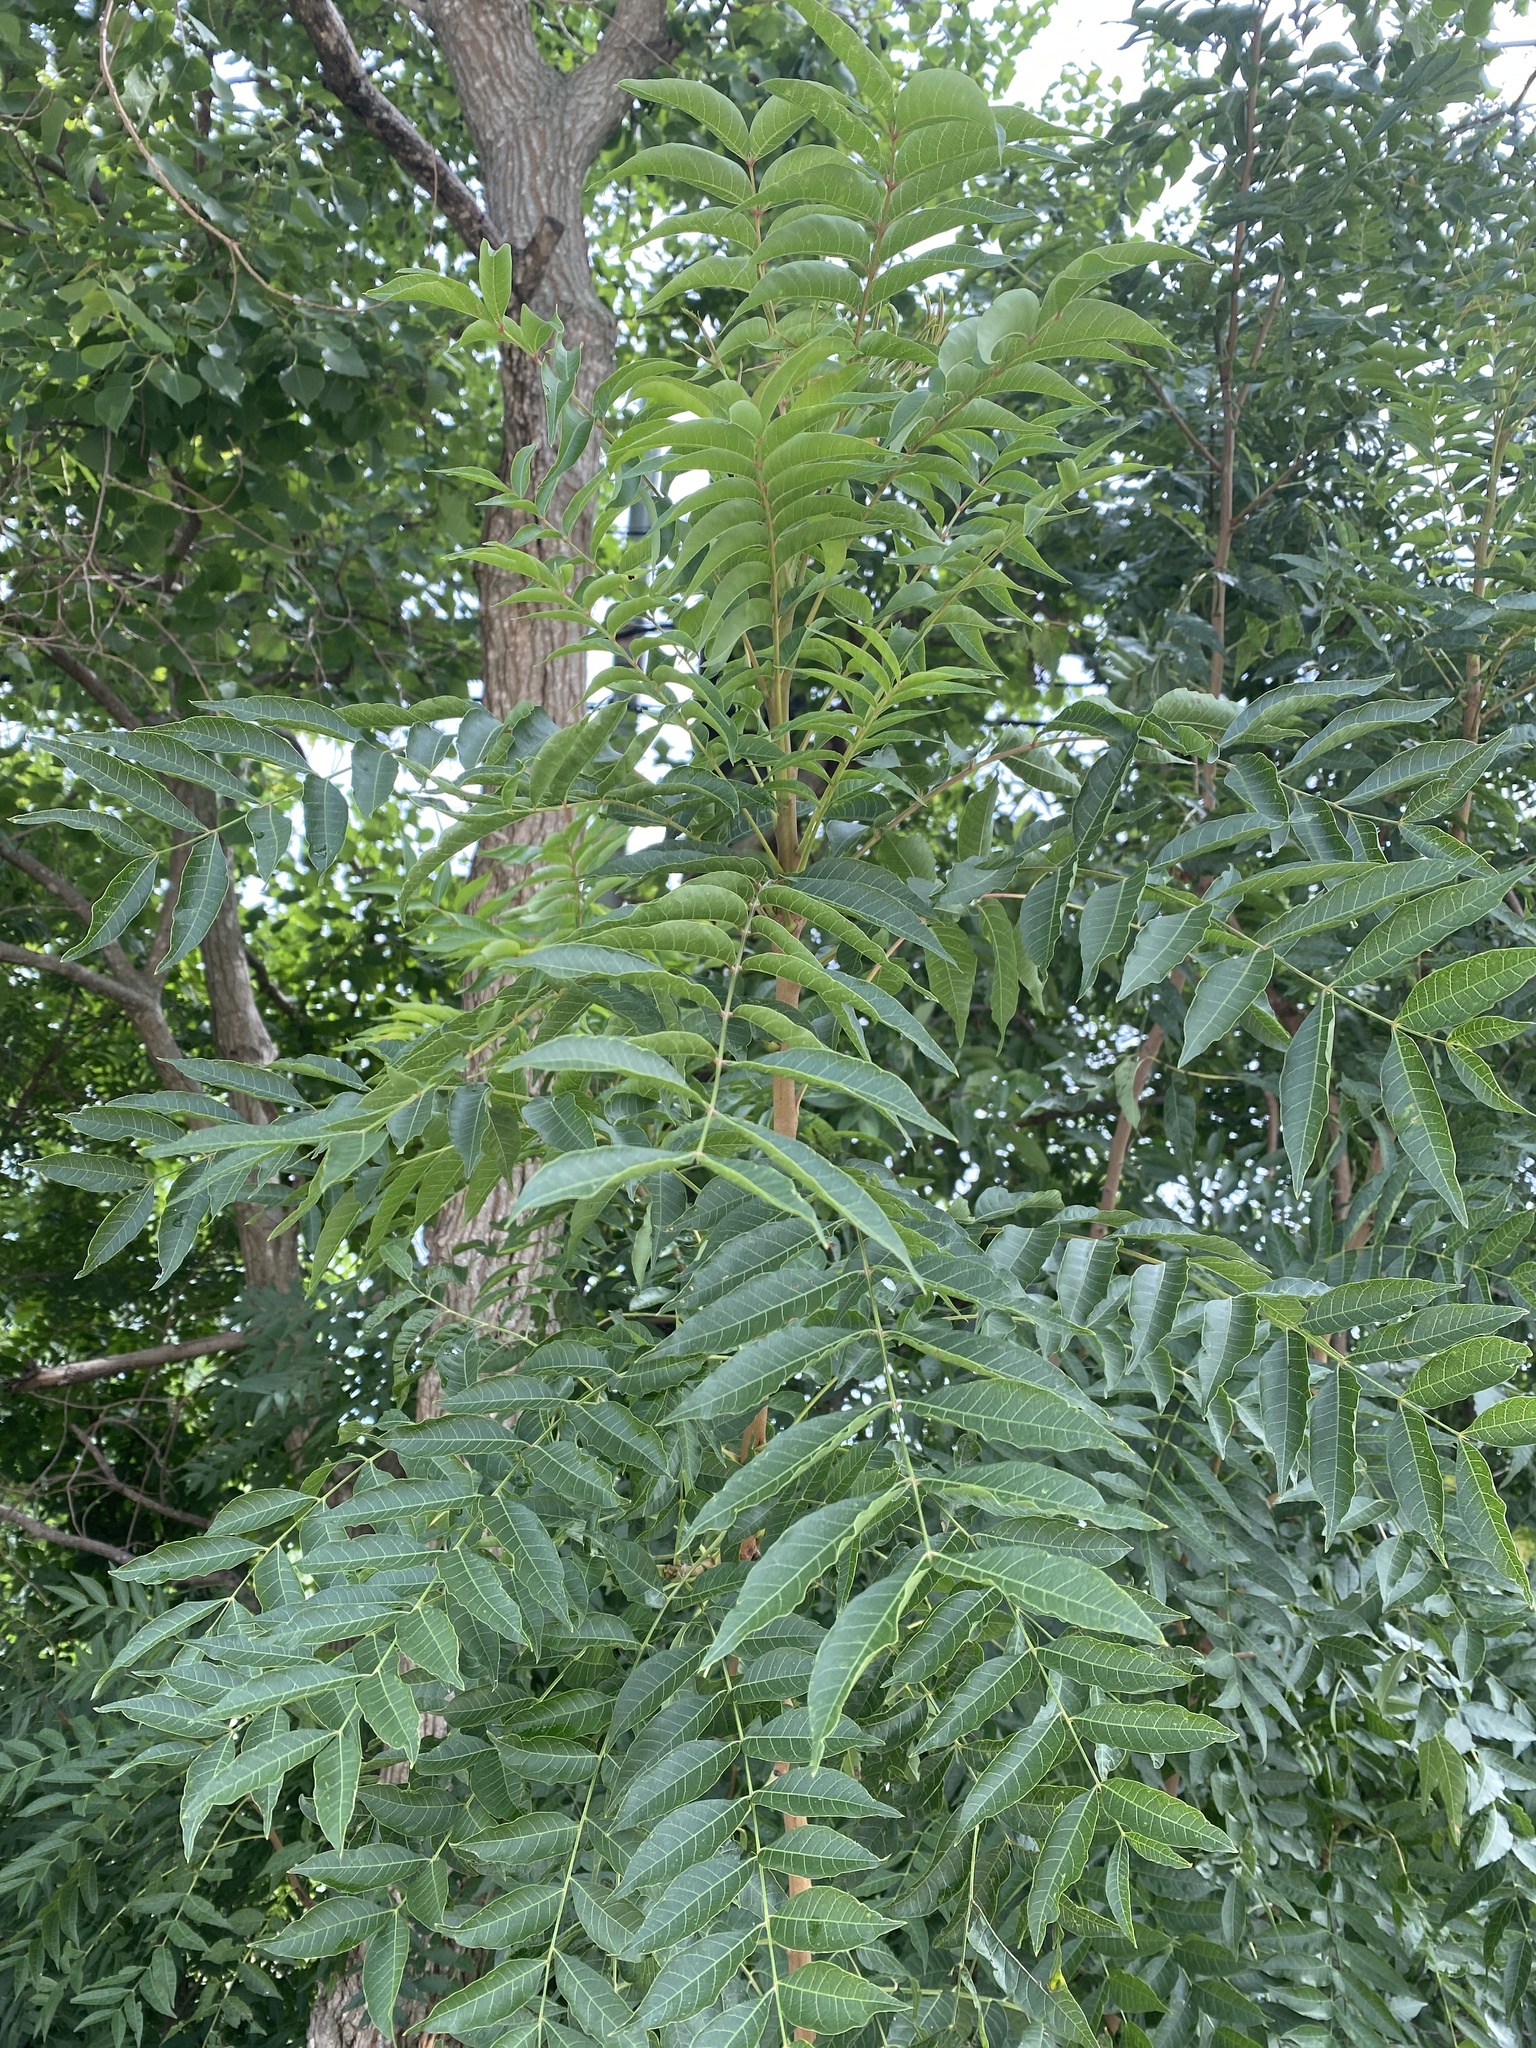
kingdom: Plantae
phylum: Tracheophyta
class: Magnoliopsida
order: Sapindales
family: Anacardiaceae
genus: Pistacia
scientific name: Pistacia chinensis
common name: Chinese pistache
